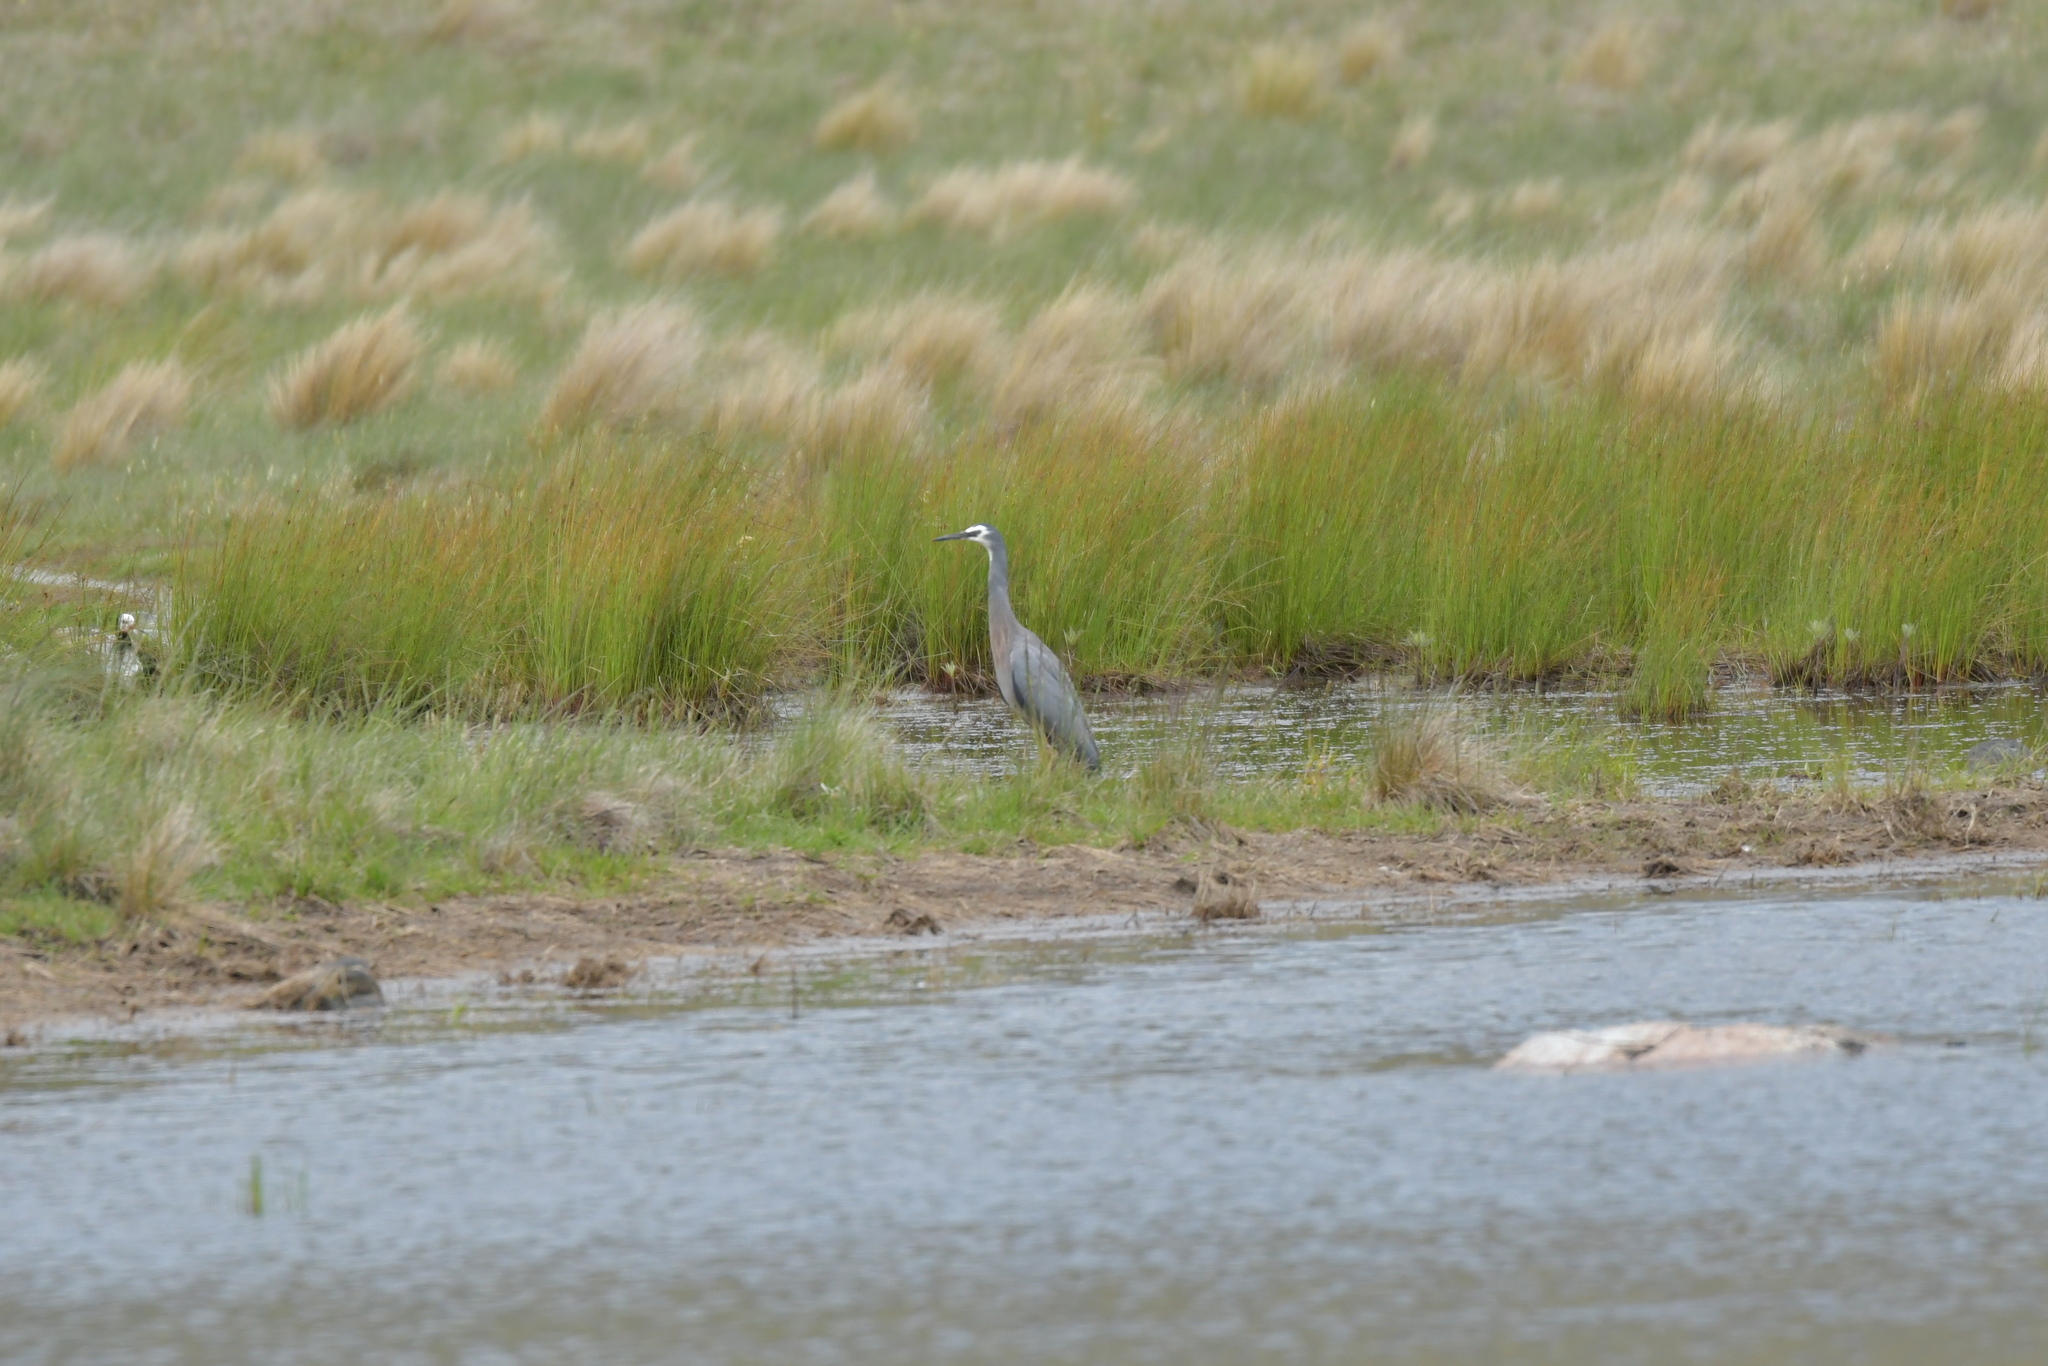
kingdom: Animalia
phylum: Chordata
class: Aves
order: Pelecaniformes
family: Ardeidae
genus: Egretta
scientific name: Egretta novaehollandiae
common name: White-faced heron
